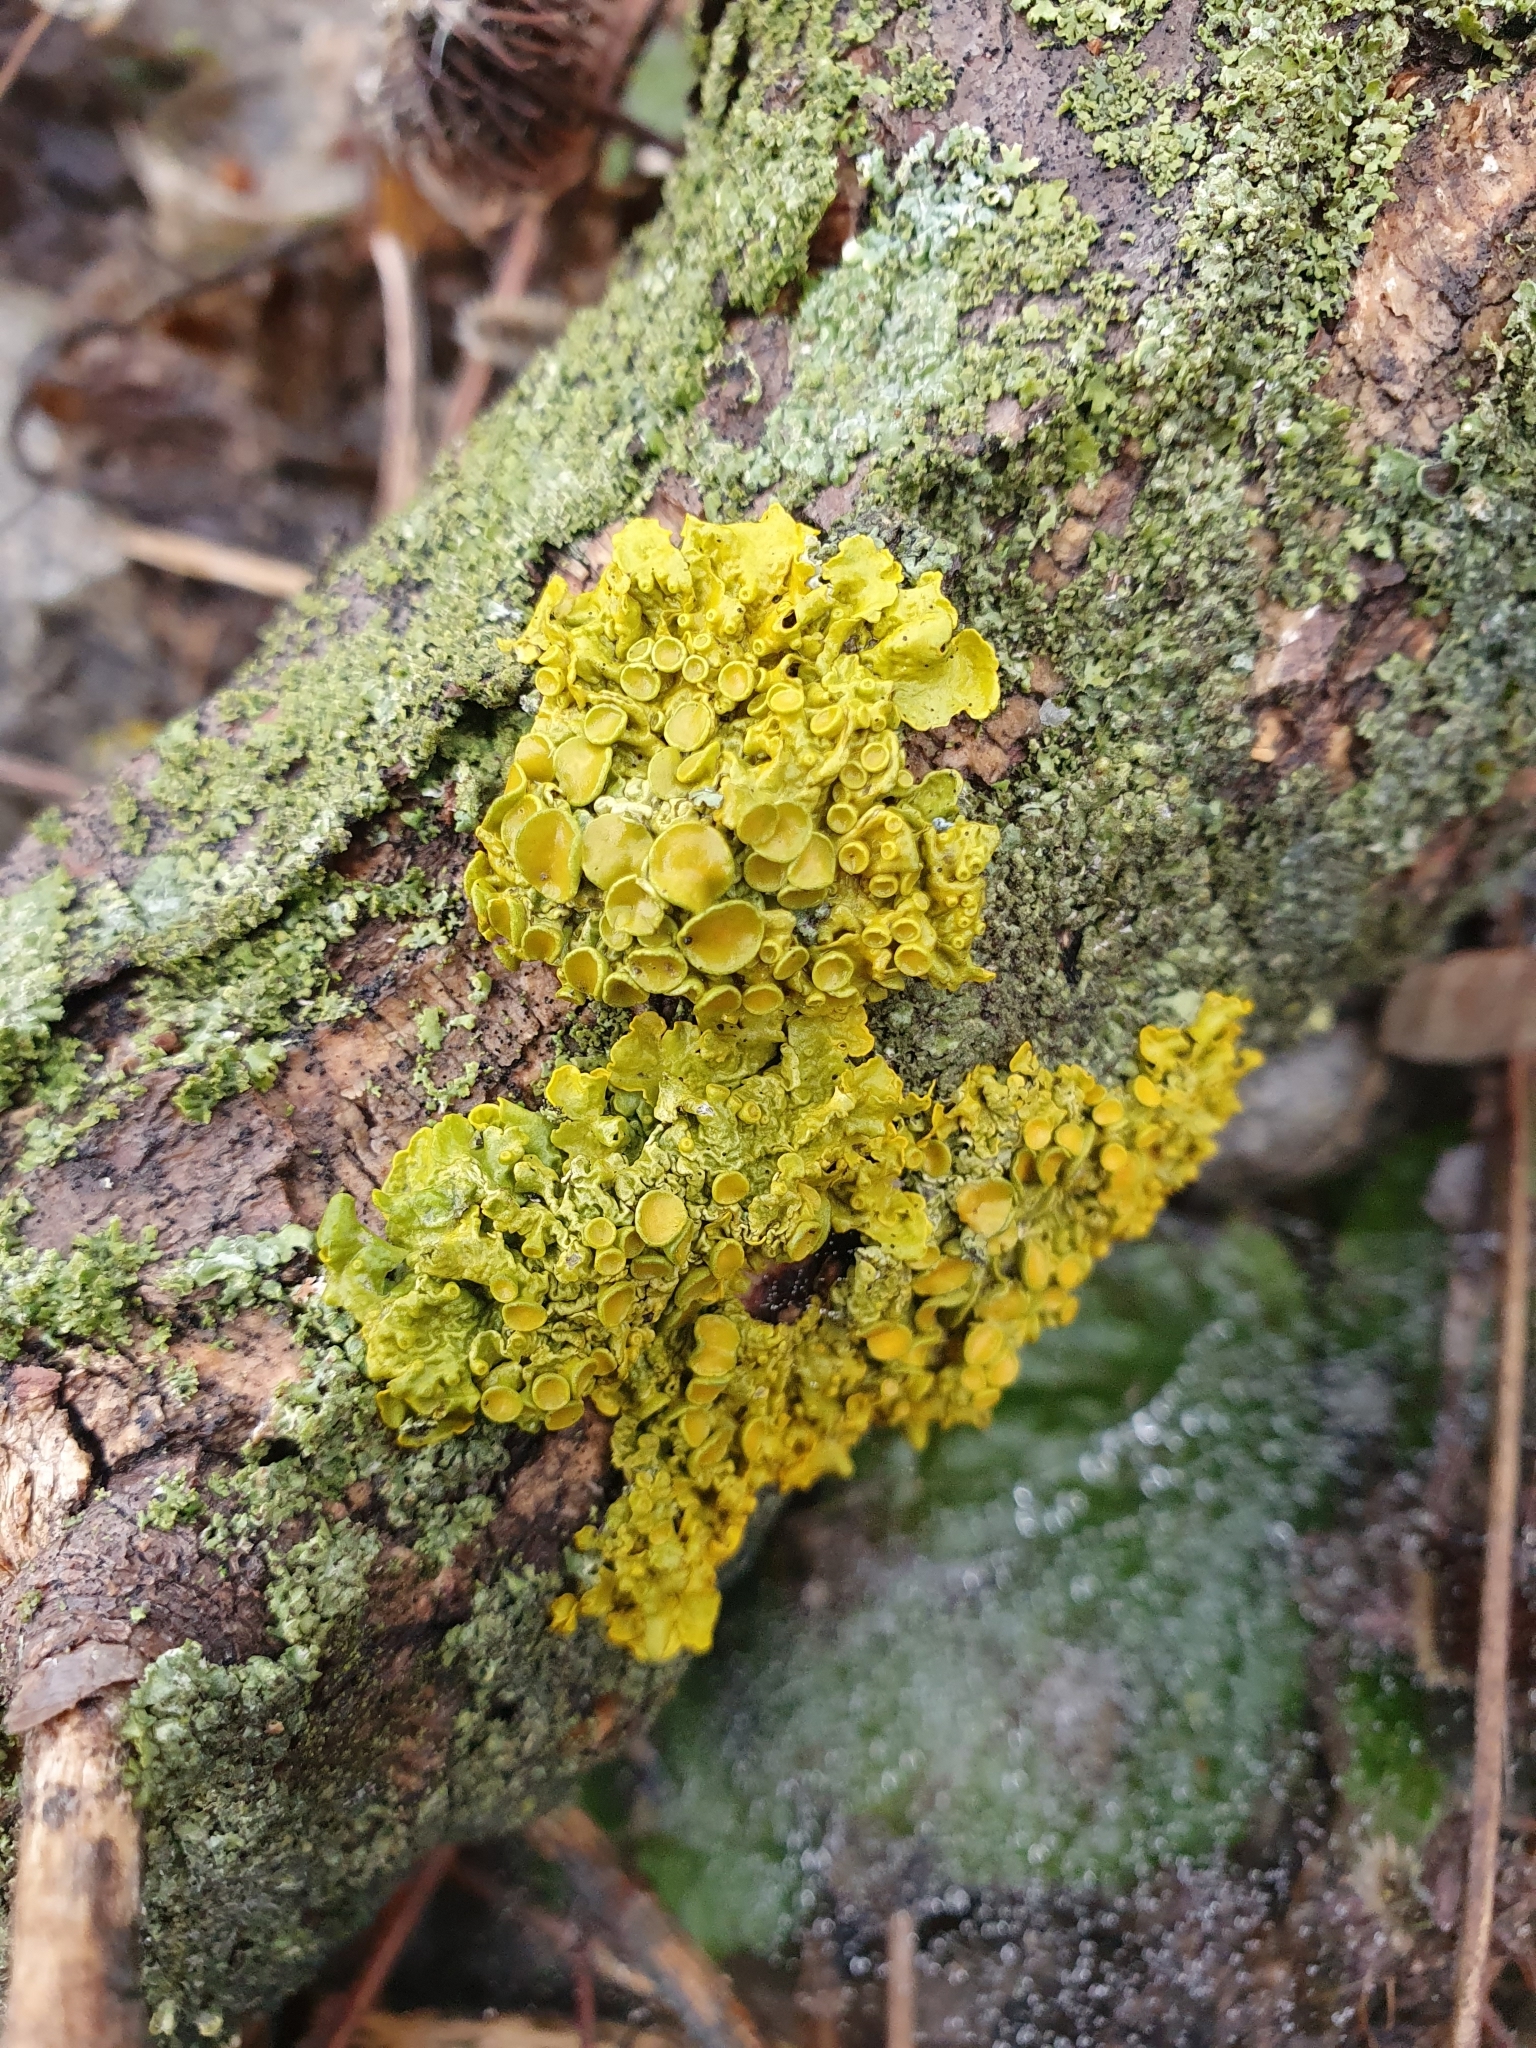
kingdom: Fungi
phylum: Ascomycota
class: Lecanoromycetes
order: Teloschistales
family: Teloschistaceae
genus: Xanthoria
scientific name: Xanthoria parietina
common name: Common orange lichen
